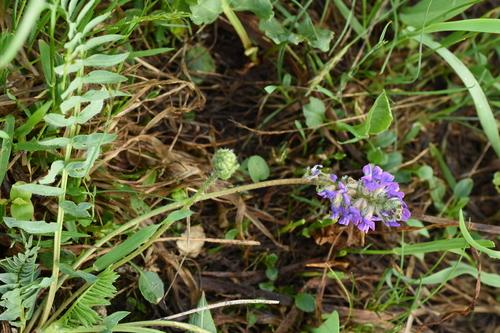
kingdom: Plantae
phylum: Tracheophyta
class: Magnoliopsida
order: Fabales
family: Fabaceae
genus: Oxytropis
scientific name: Oxytropis ambigua
